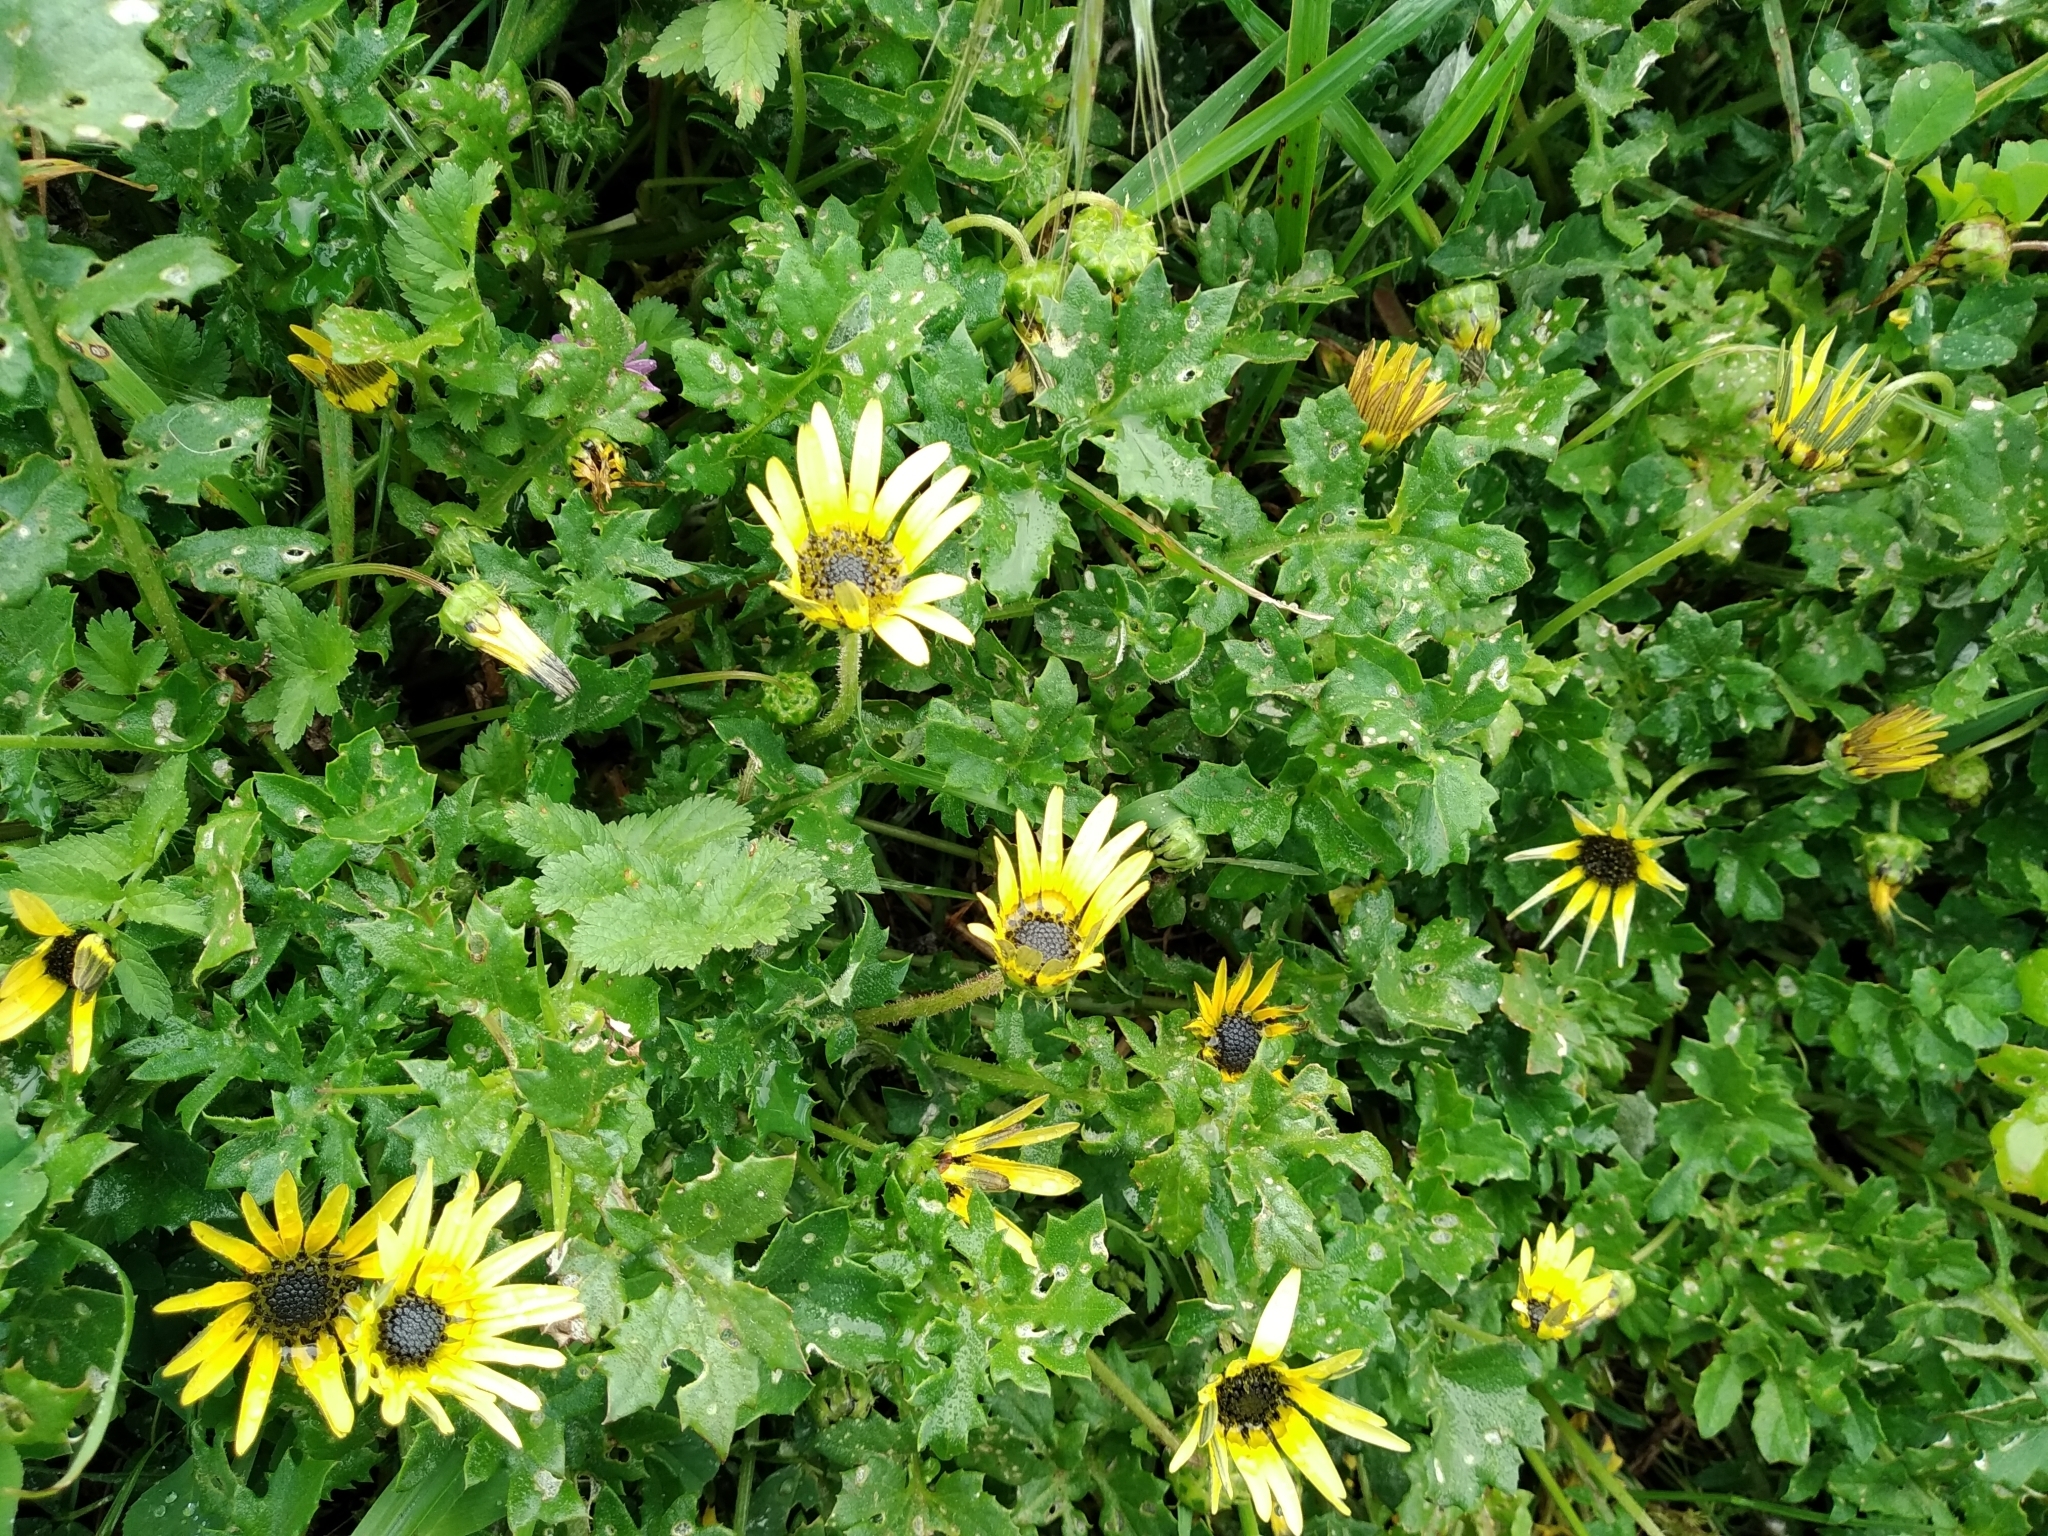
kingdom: Plantae
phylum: Tracheophyta
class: Magnoliopsida
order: Asterales
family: Asteraceae
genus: Arctotheca
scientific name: Arctotheca calendula
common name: Capeweed
